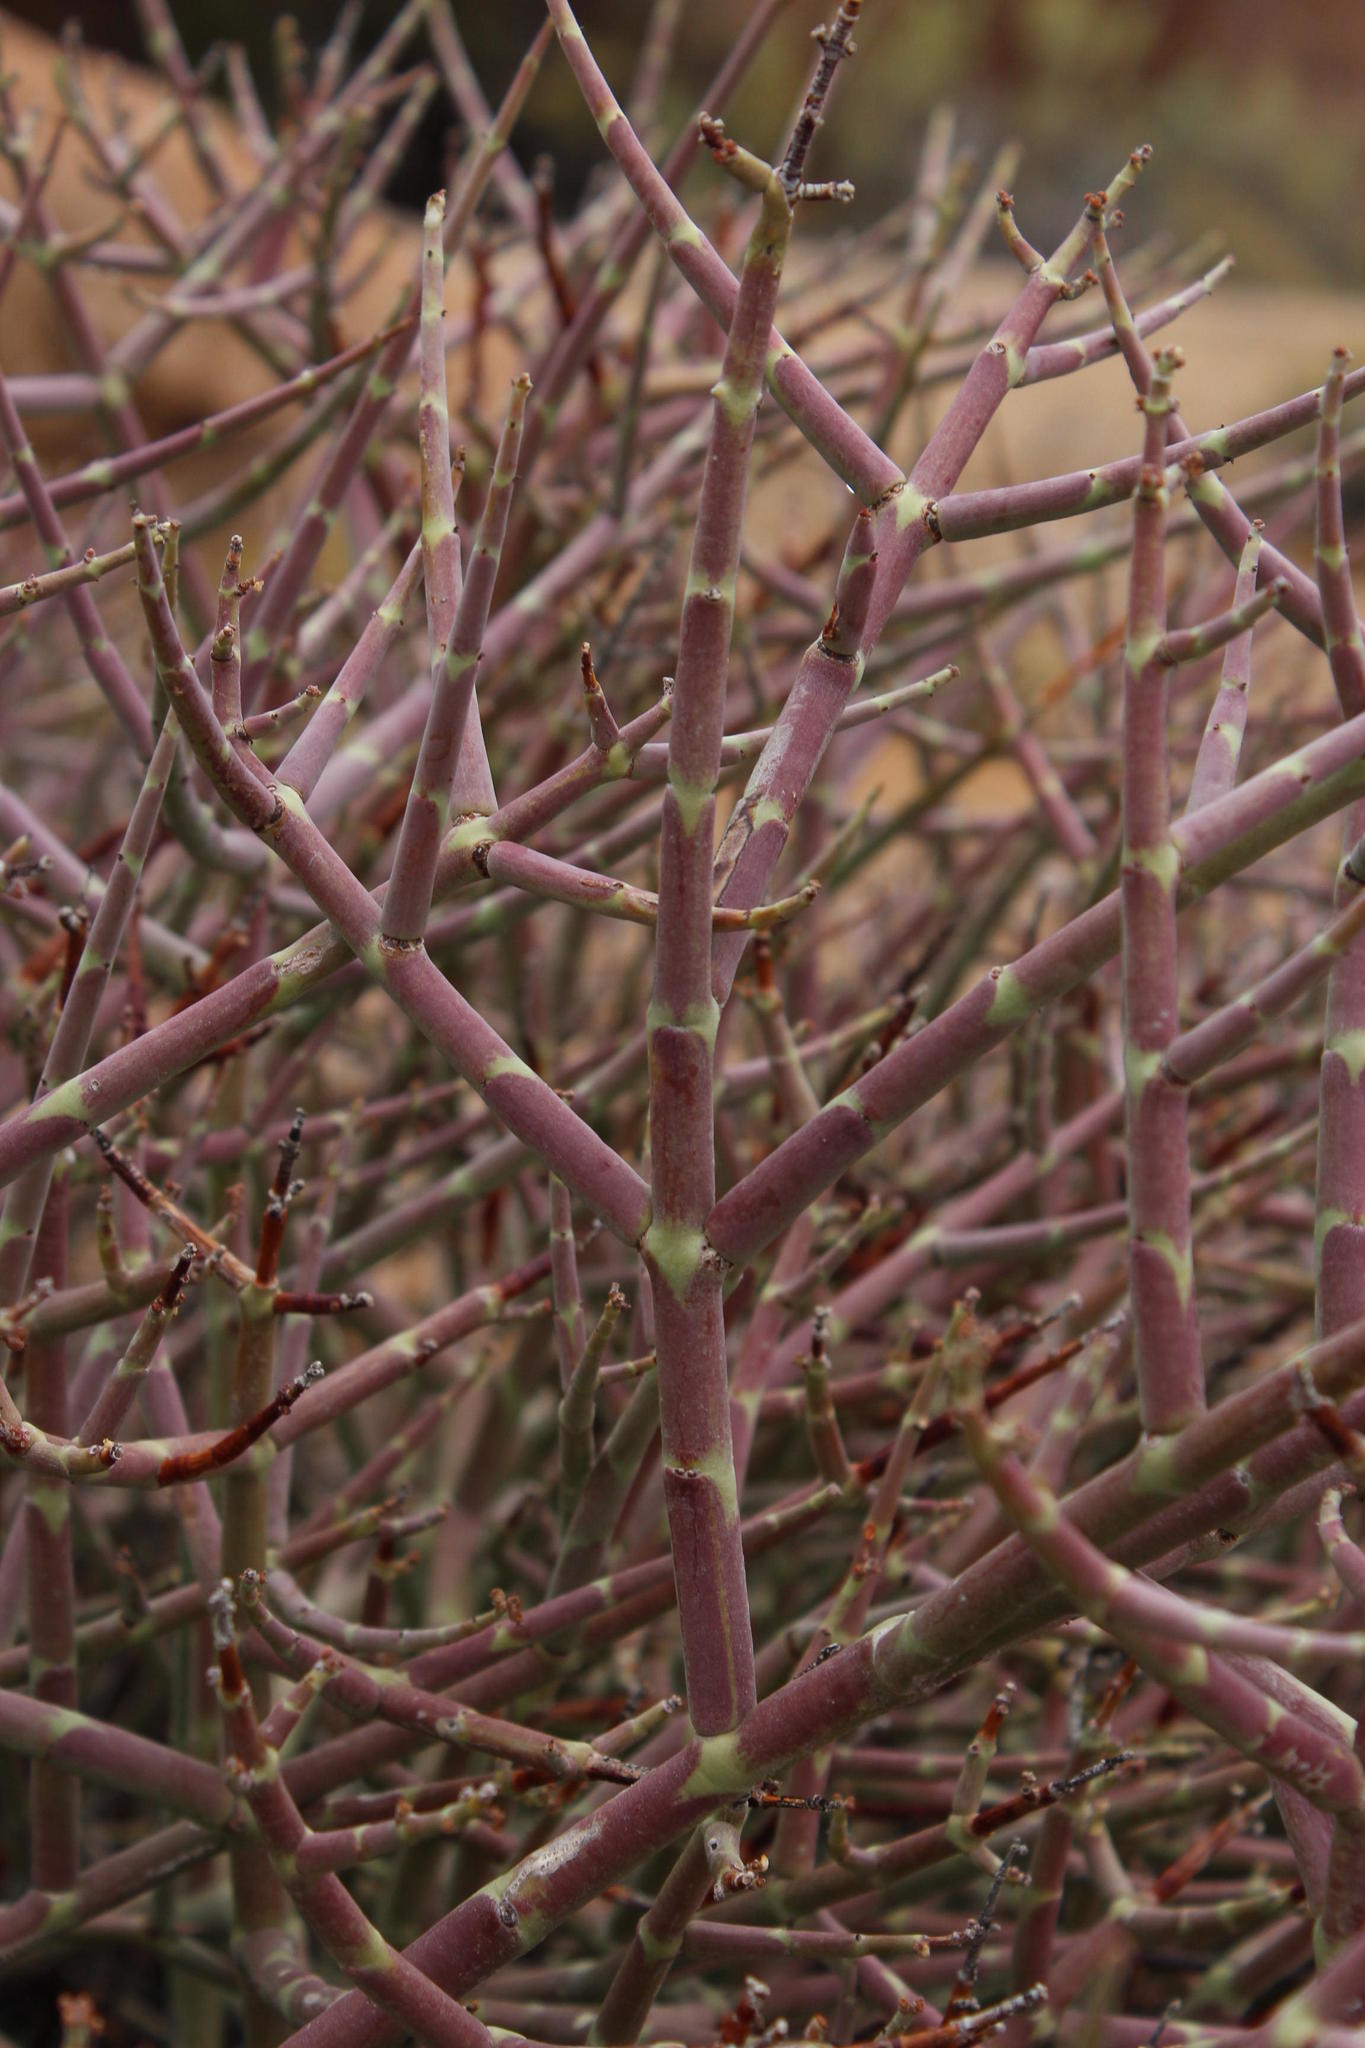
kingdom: Plantae
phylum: Tracheophyta
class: Magnoliopsida
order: Malpighiales
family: Euphorbiaceae
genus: Euphorbia
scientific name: Euphorbia spinea
